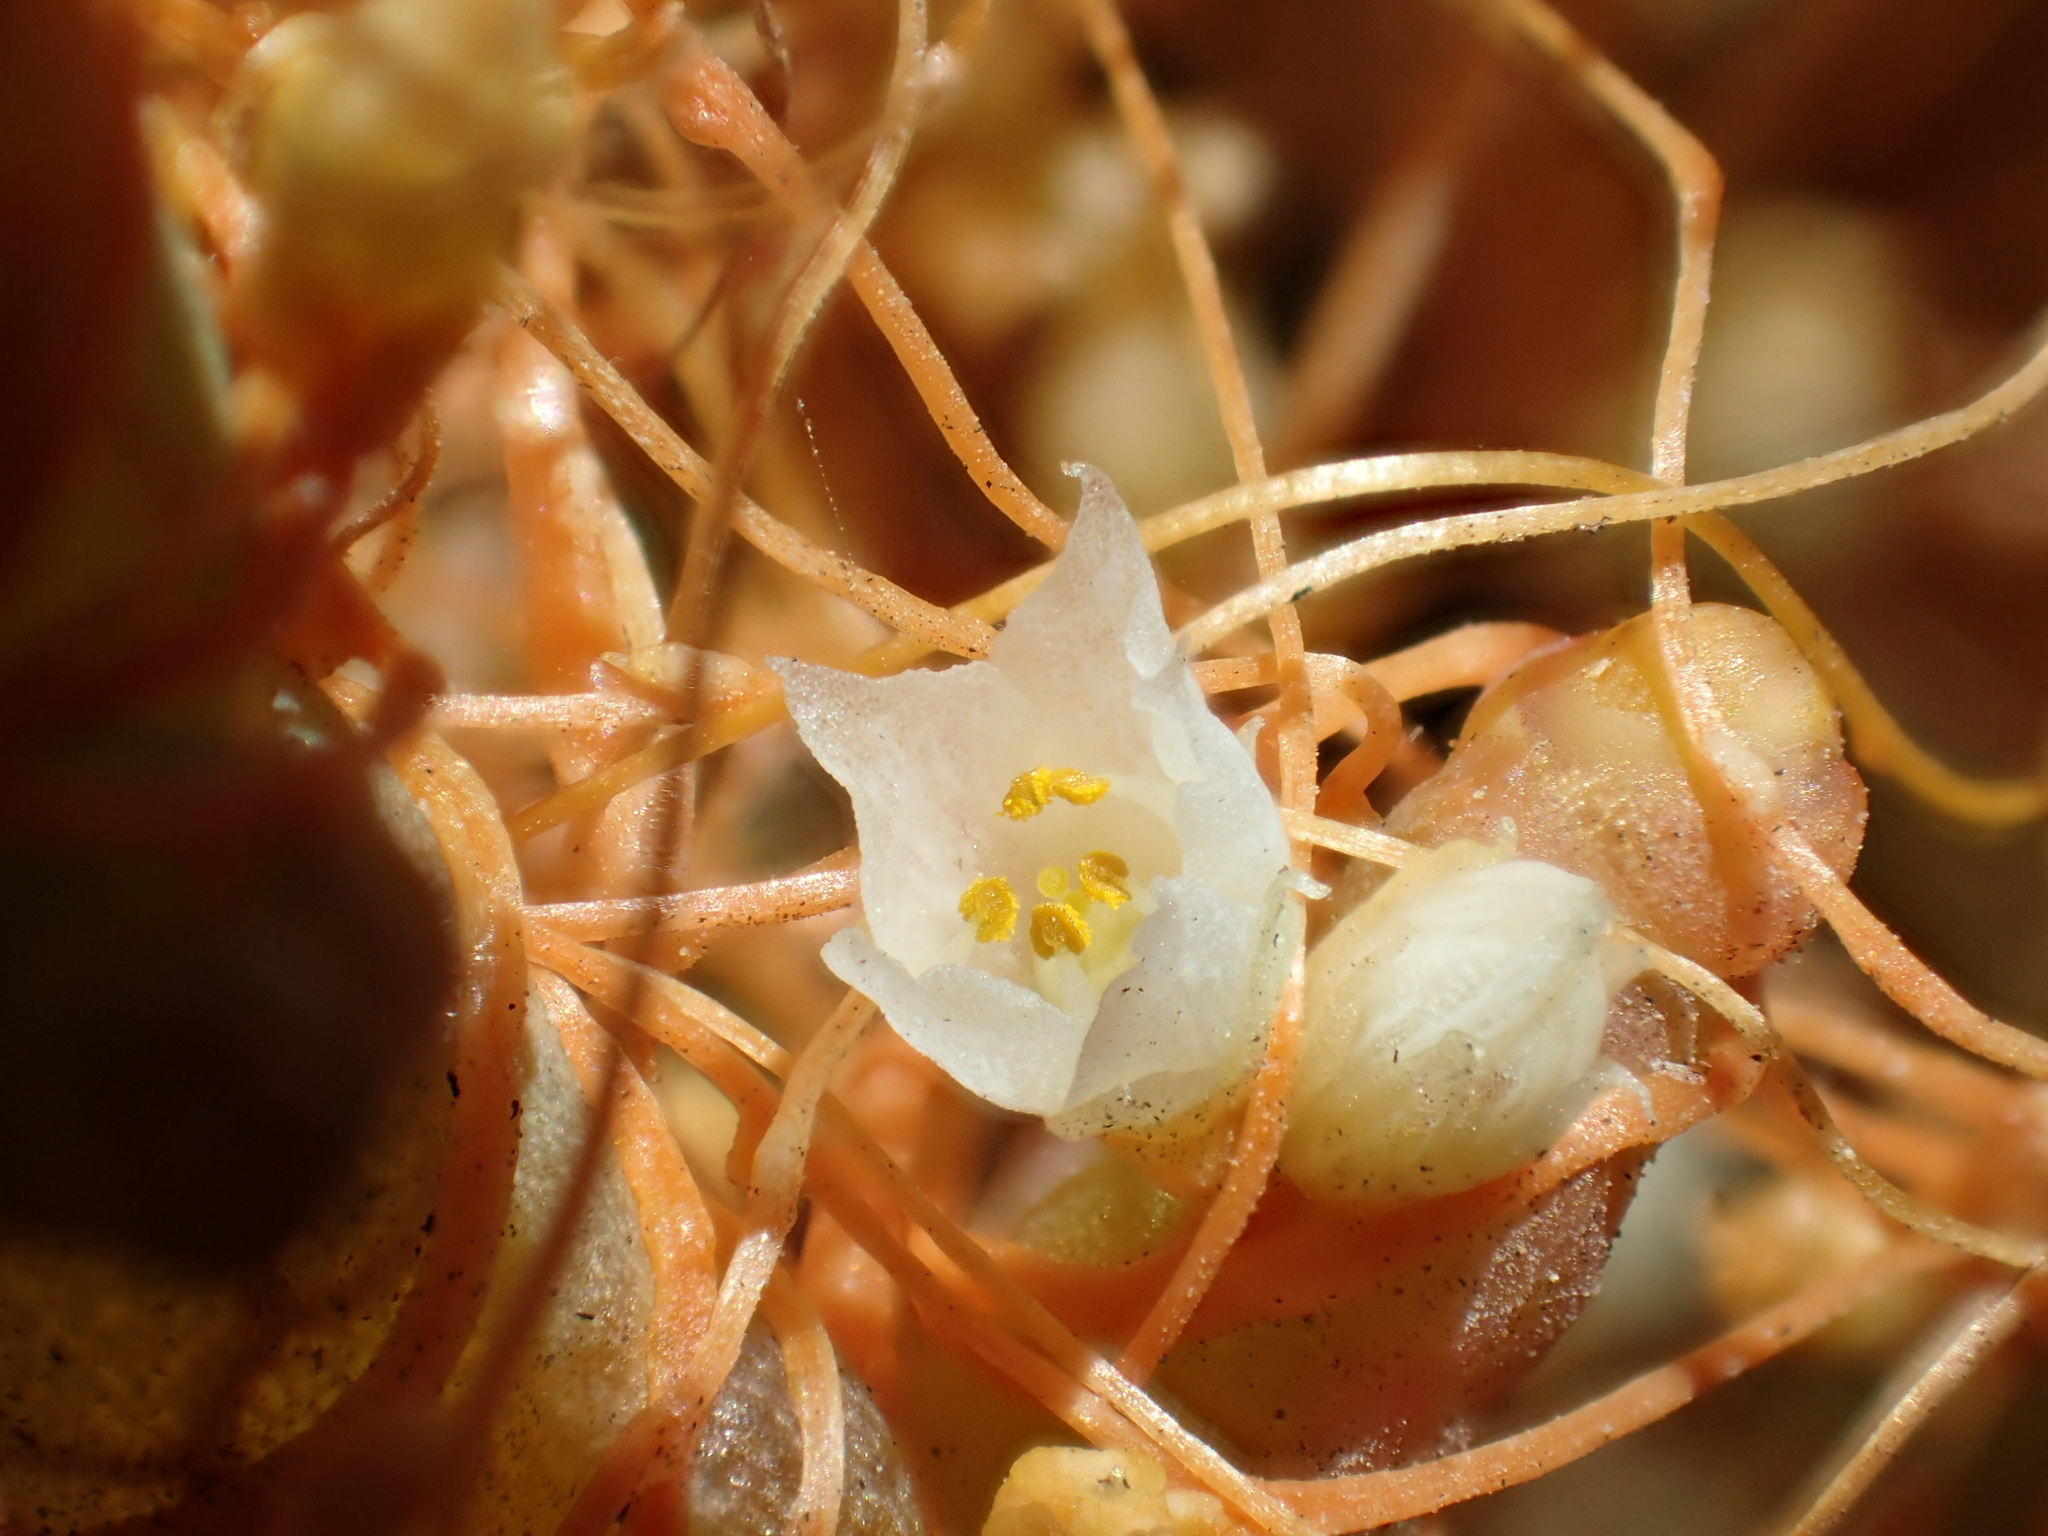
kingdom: Plantae
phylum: Tracheophyta
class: Magnoliopsida
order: Solanales
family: Convolvulaceae
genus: Cuscuta
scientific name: Cuscuta pacifica
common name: Large saltmarsh dodder
